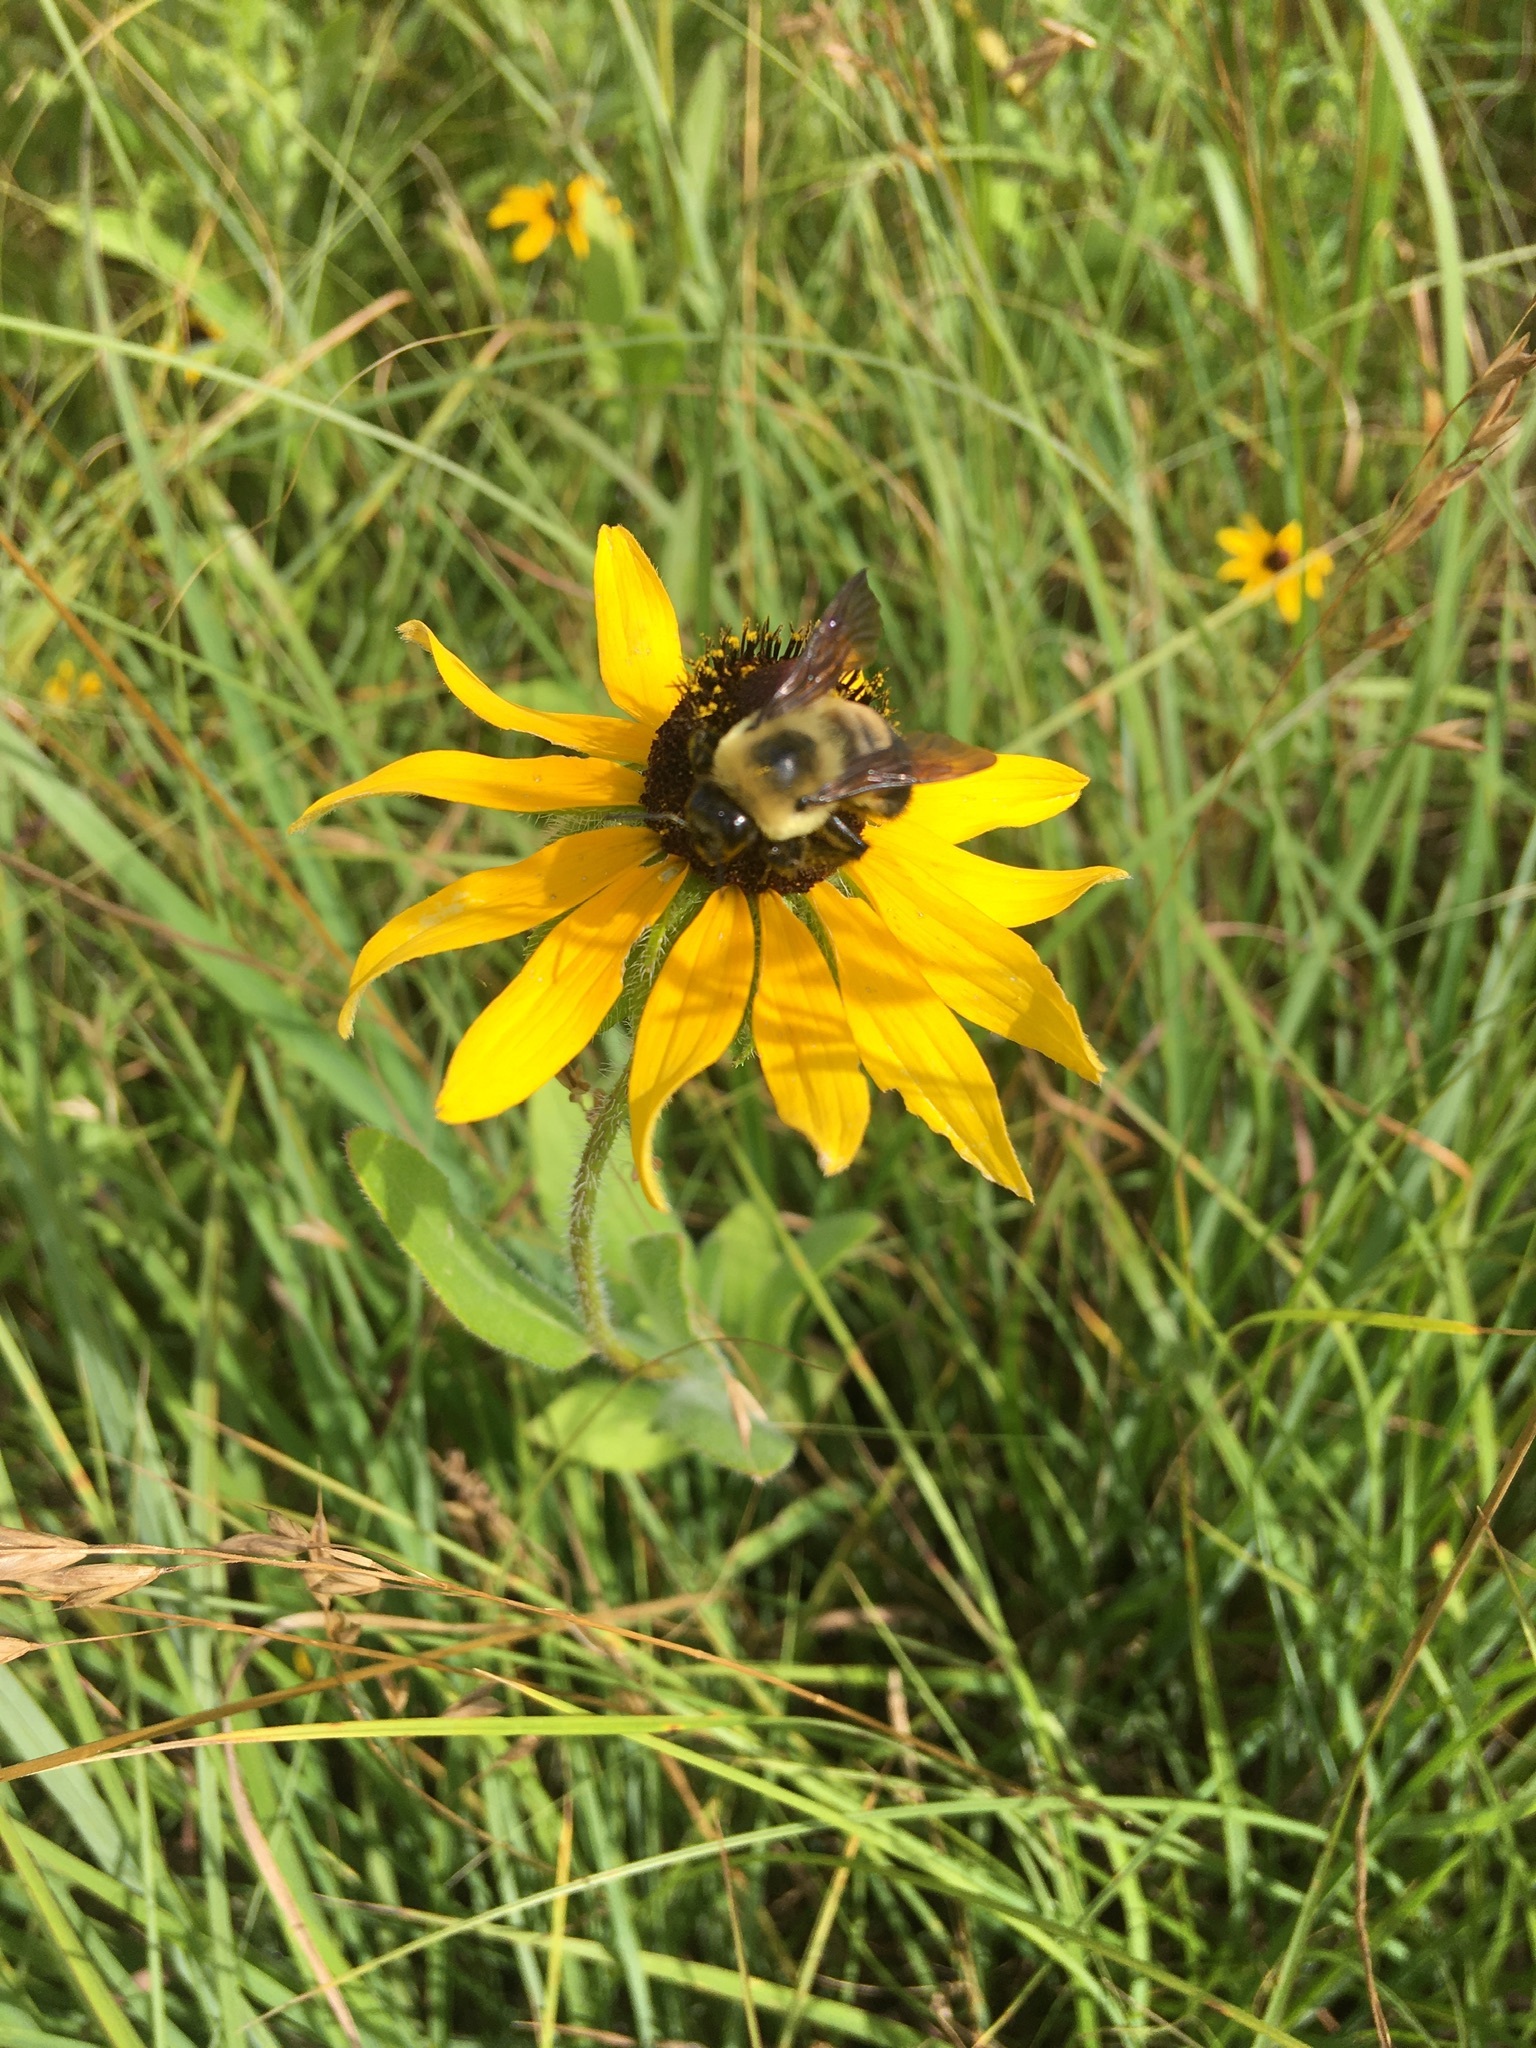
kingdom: Animalia
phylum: Arthropoda
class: Insecta
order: Hymenoptera
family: Apidae
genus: Bombus
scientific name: Bombus griseocollis
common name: Brown-belted bumble bee
